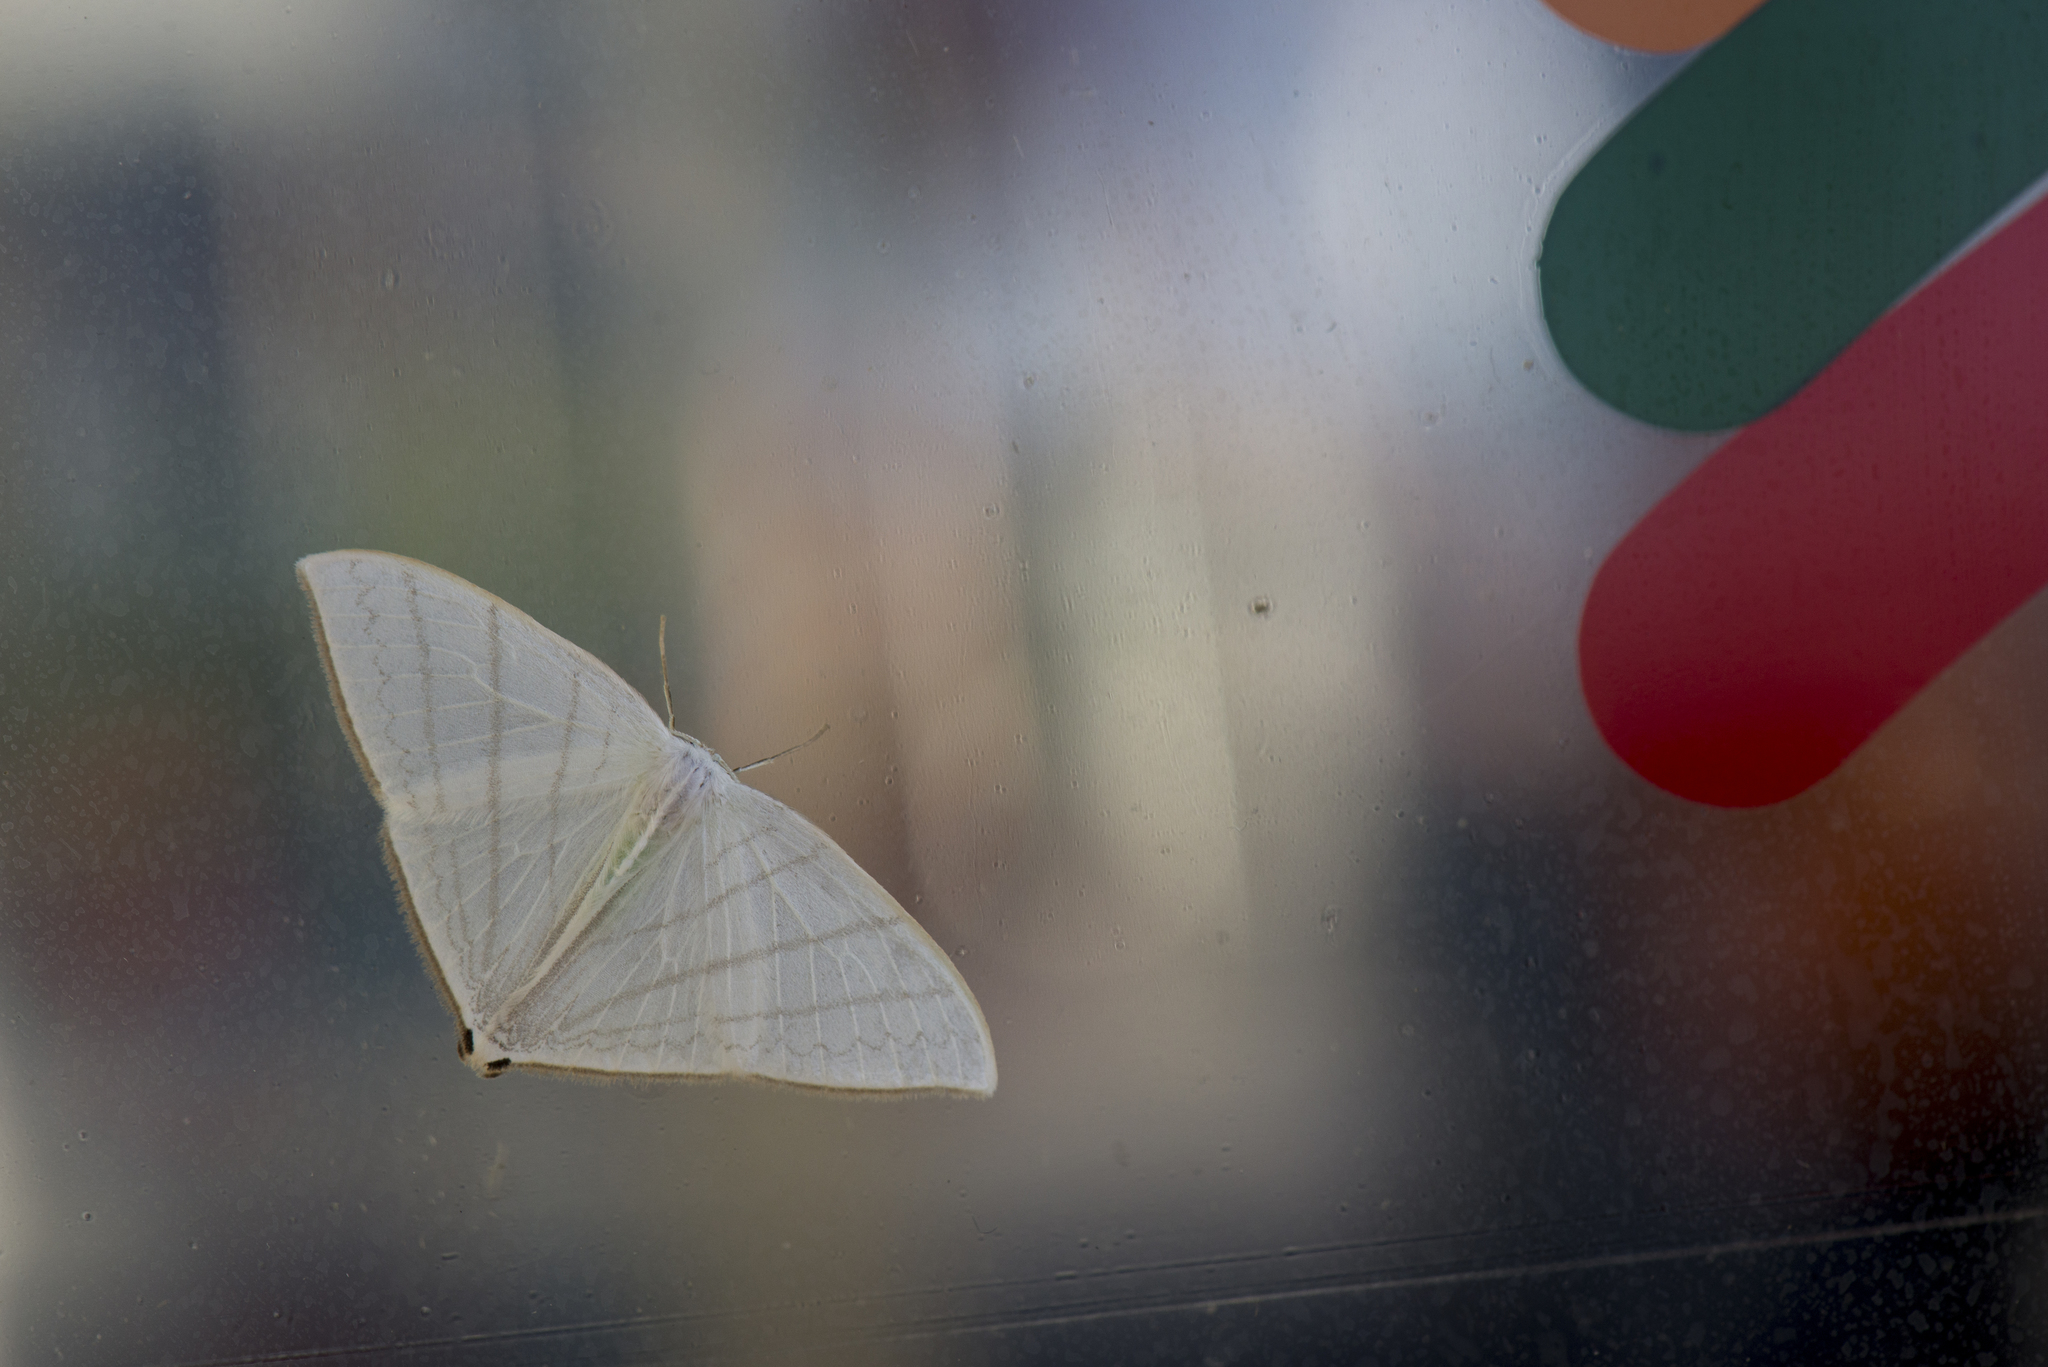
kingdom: Animalia
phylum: Arthropoda
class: Insecta
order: Lepidoptera
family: Drepanidae
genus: Ditrigona
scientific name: Ditrigona triangularia
